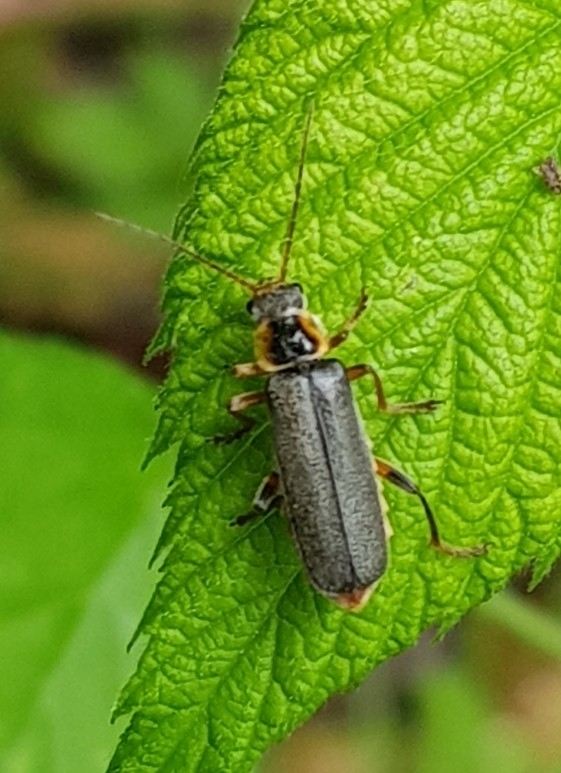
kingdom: Animalia
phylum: Arthropoda
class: Insecta
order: Coleoptera
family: Cantharidae
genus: Cantharis
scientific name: Cantharis nigricans
